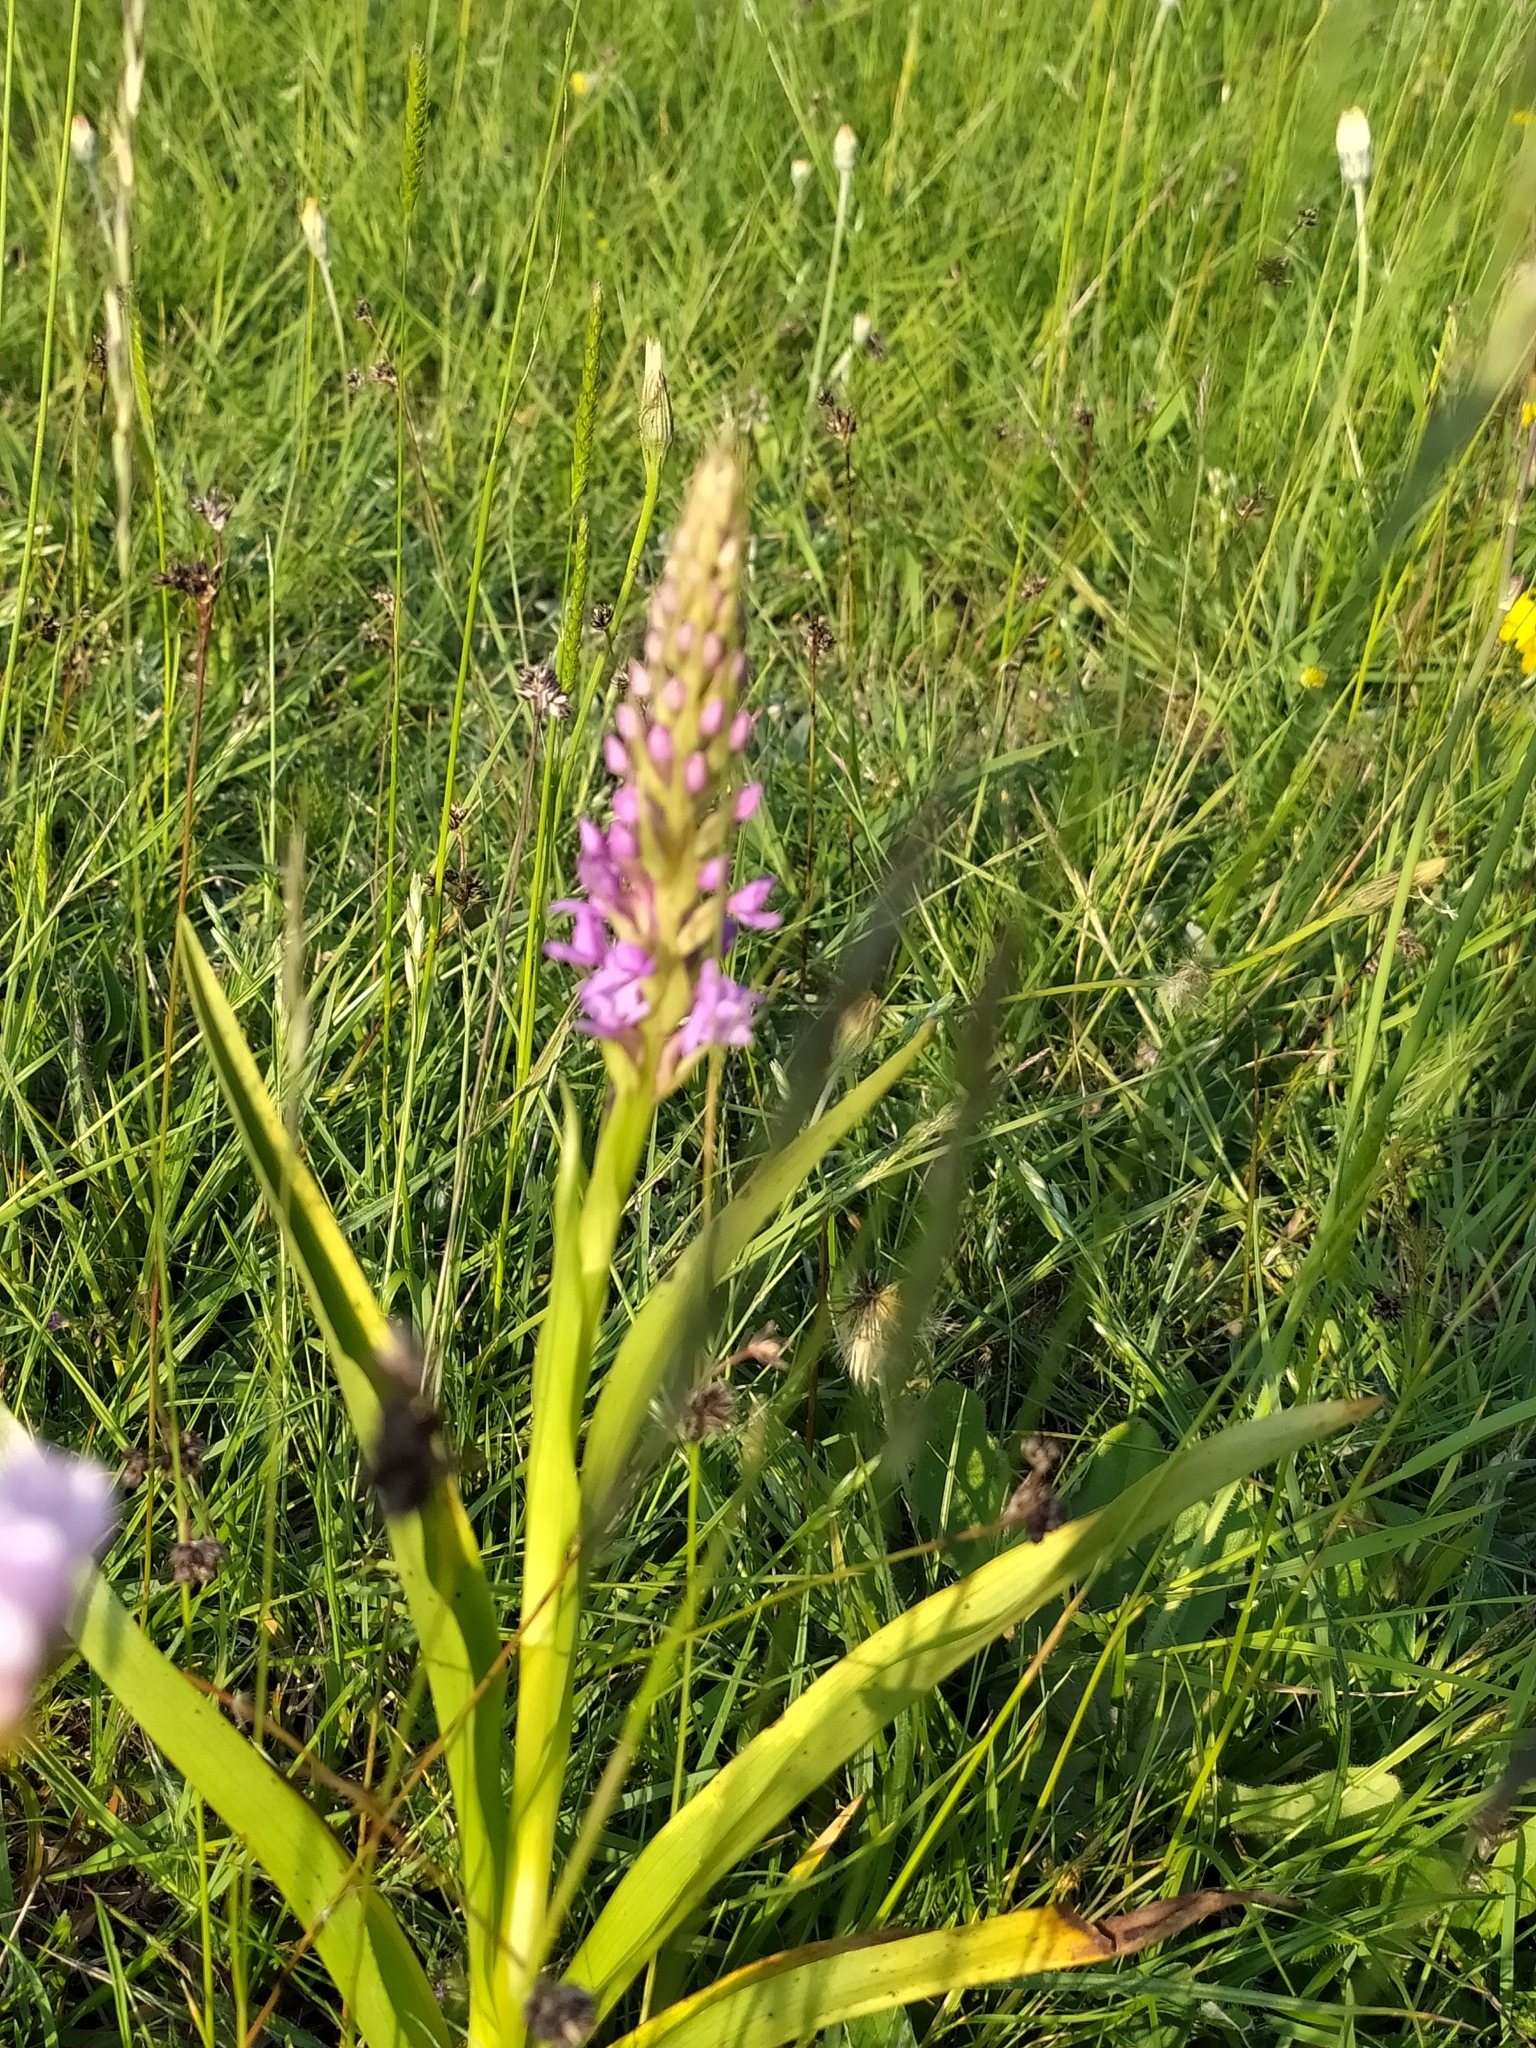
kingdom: Plantae
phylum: Tracheophyta
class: Liliopsida
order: Asparagales
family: Orchidaceae
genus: Gymnadenia
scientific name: Gymnadenia conopsea
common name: Fragrant orchid
